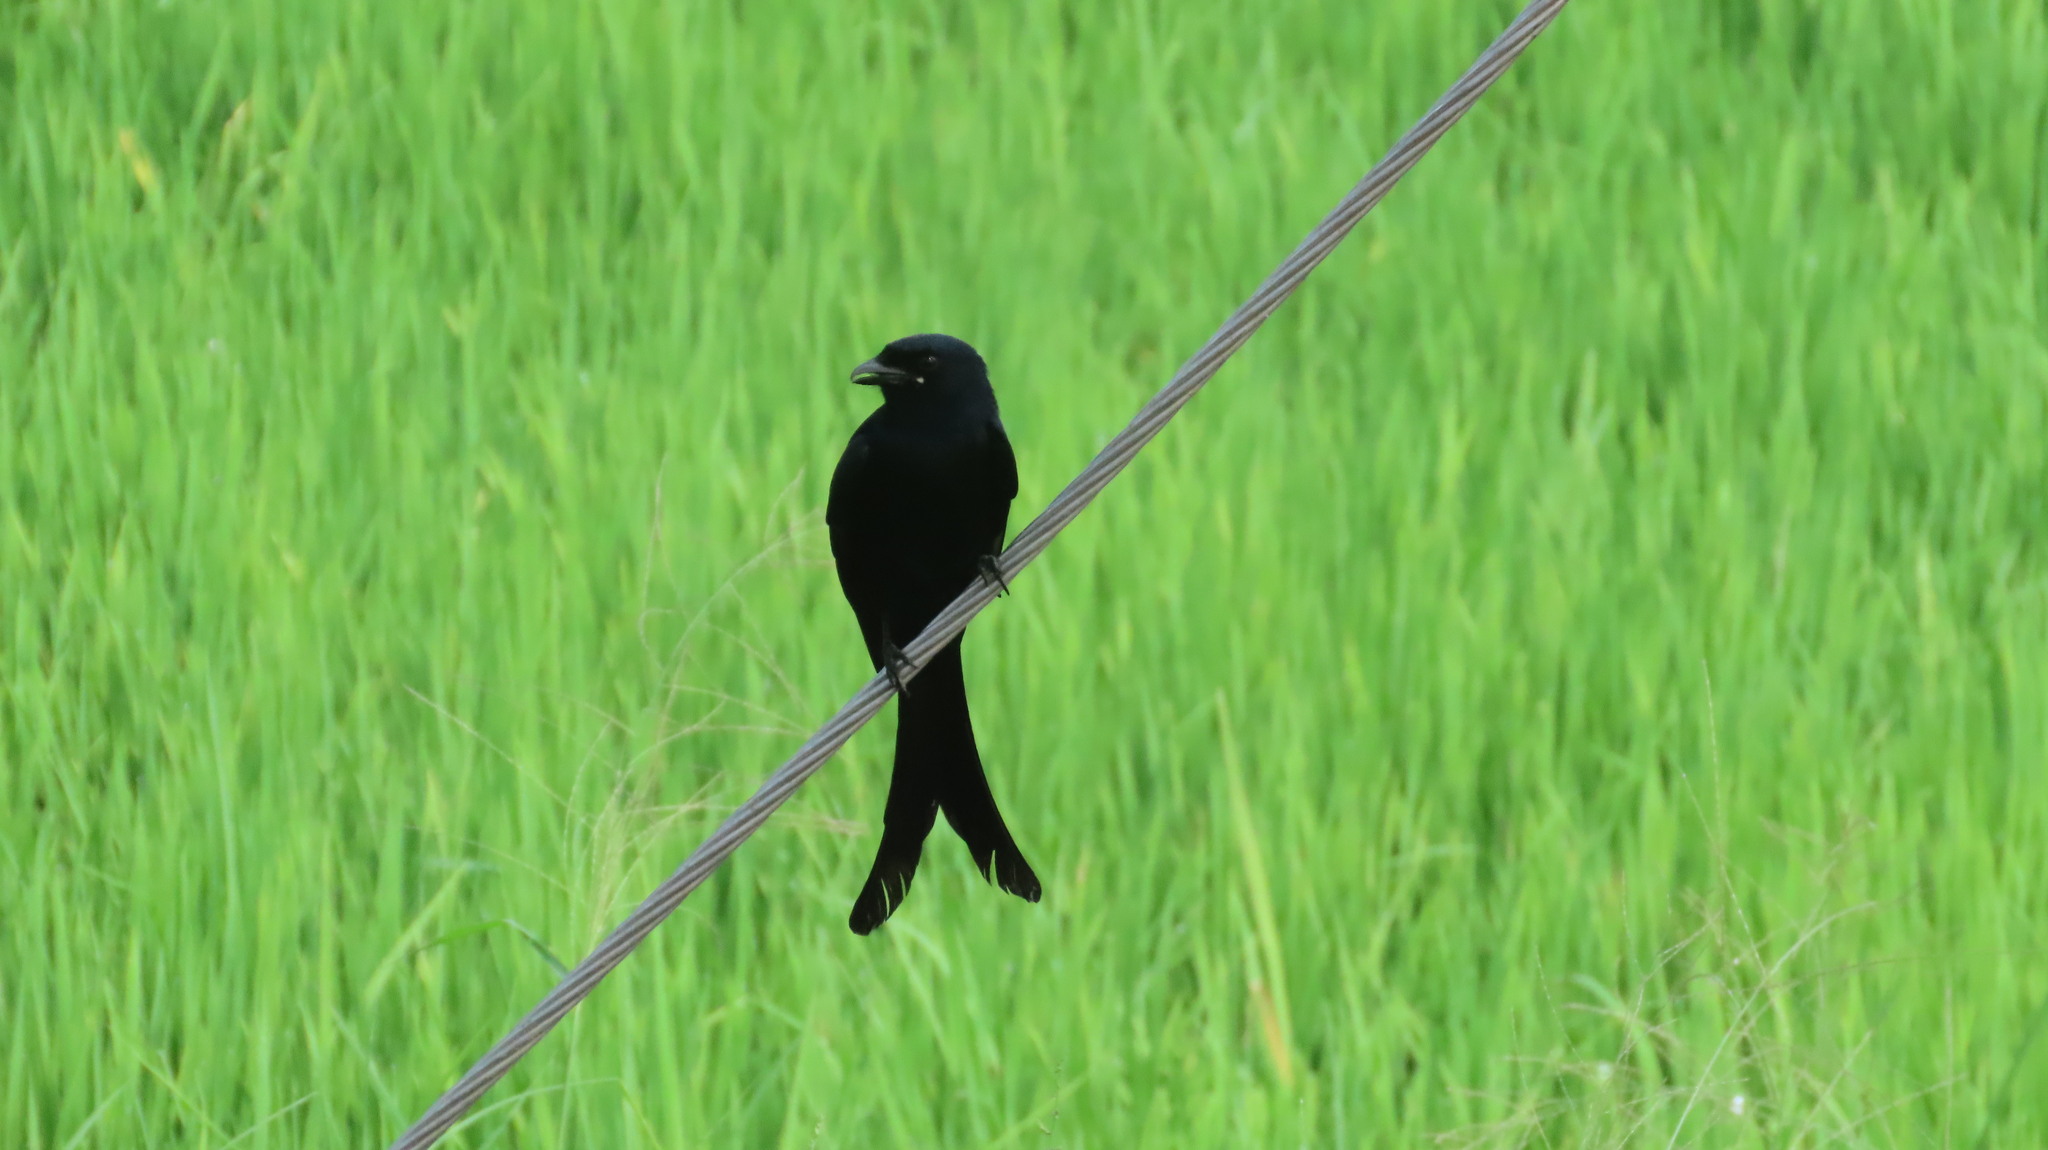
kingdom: Animalia
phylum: Chordata
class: Aves
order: Passeriformes
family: Dicruridae
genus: Dicrurus
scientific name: Dicrurus macrocercus
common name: Black drongo
